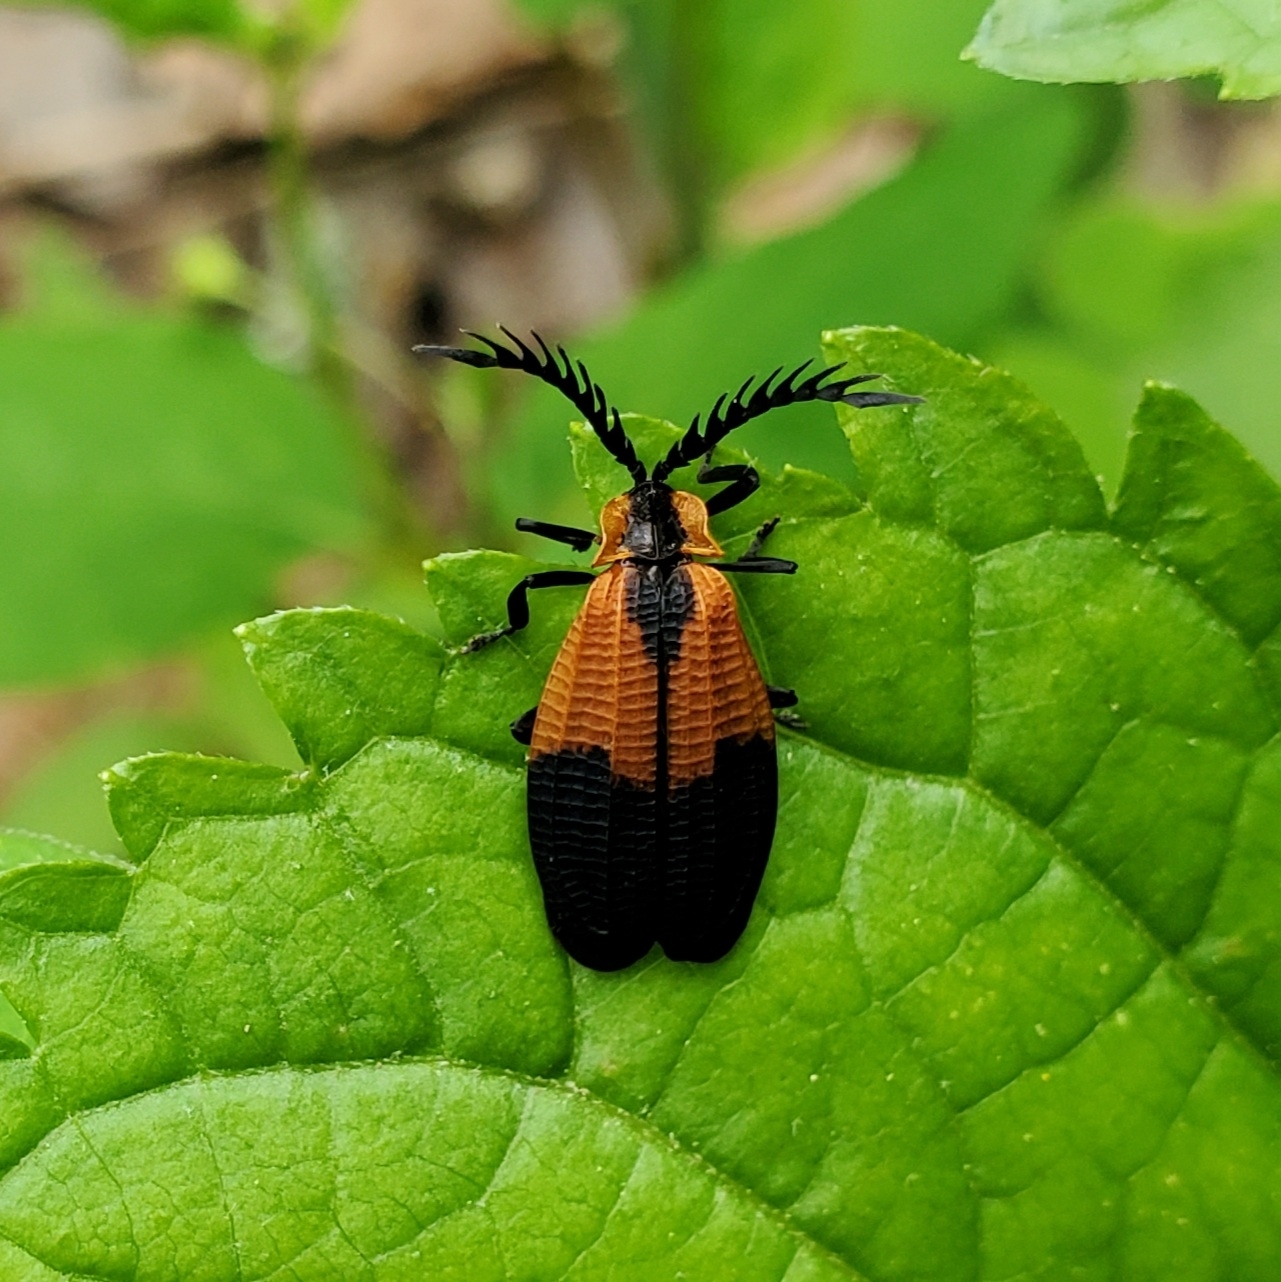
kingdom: Animalia
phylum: Arthropoda
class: Insecta
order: Coleoptera
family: Lycidae
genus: Caenia
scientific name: Caenia dimidiata
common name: Terminal net-winged beetle
